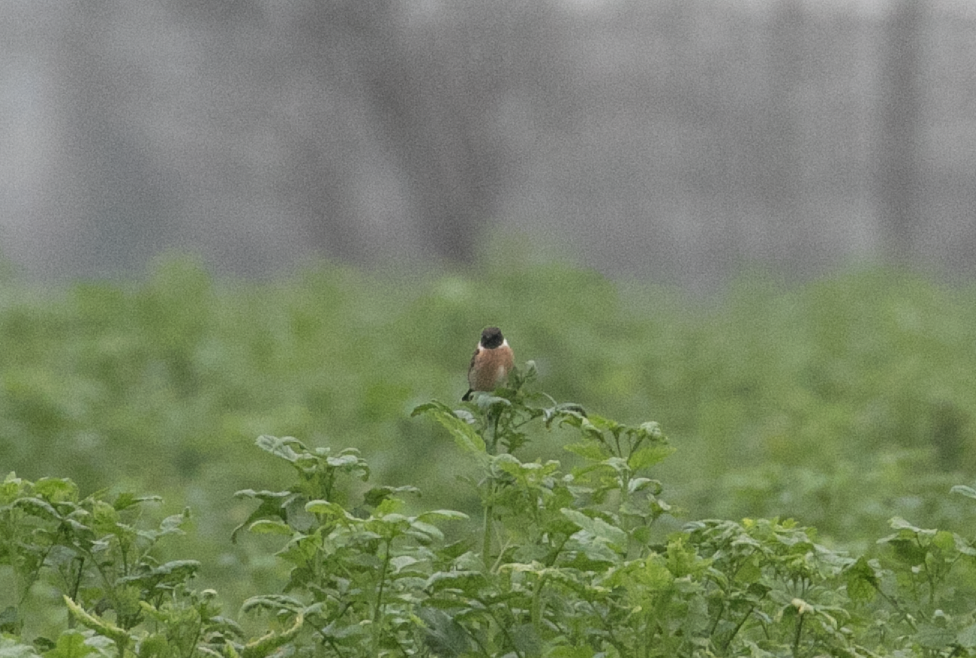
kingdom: Animalia
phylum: Chordata
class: Aves
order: Passeriformes
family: Muscicapidae
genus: Saxicola
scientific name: Saxicola rubicola
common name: European stonechat
